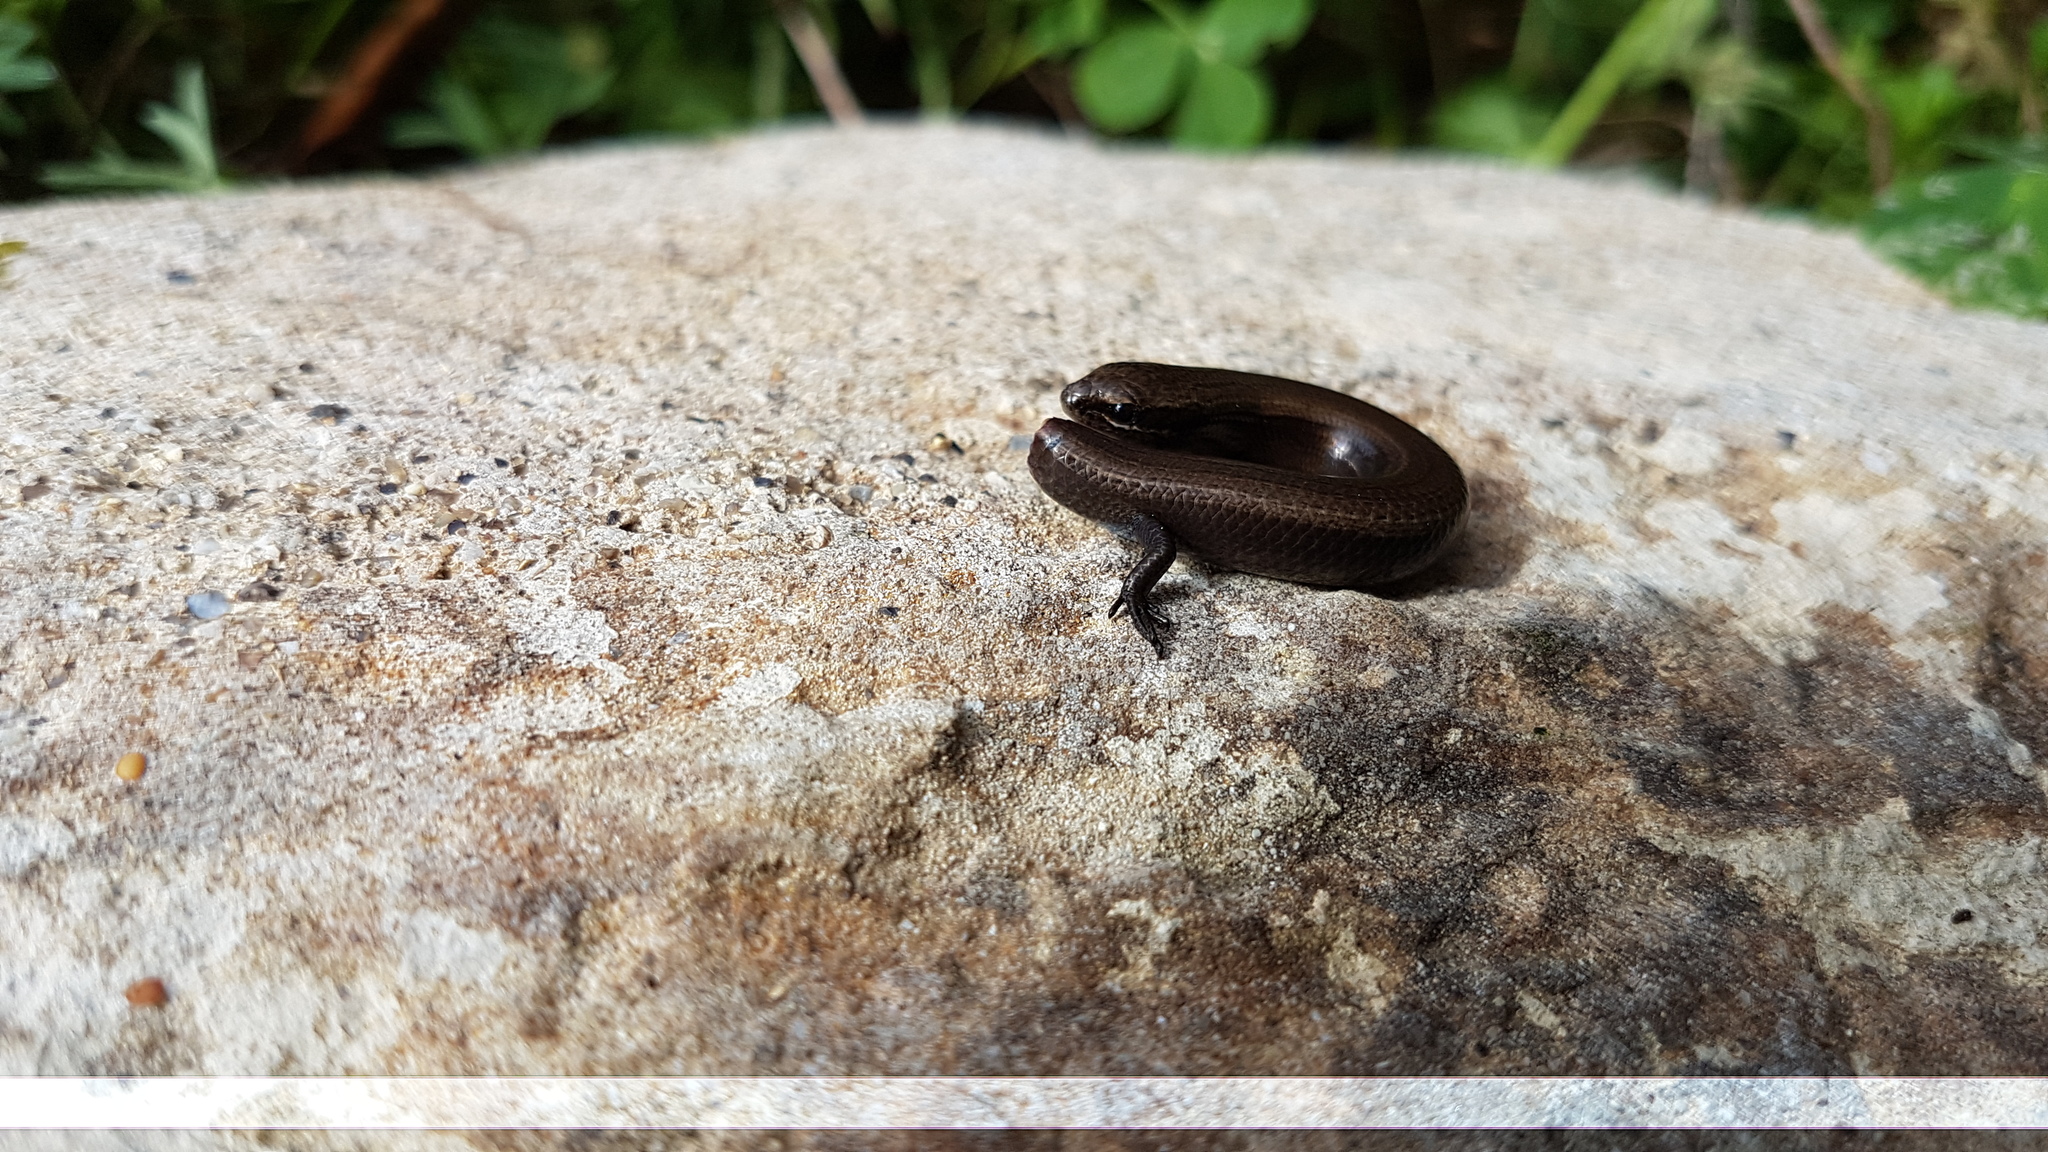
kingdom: Animalia
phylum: Chordata
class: Squamata
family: Scincidae
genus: Ablepharus
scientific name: Ablepharus kitaibelii
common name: Juniper skink
